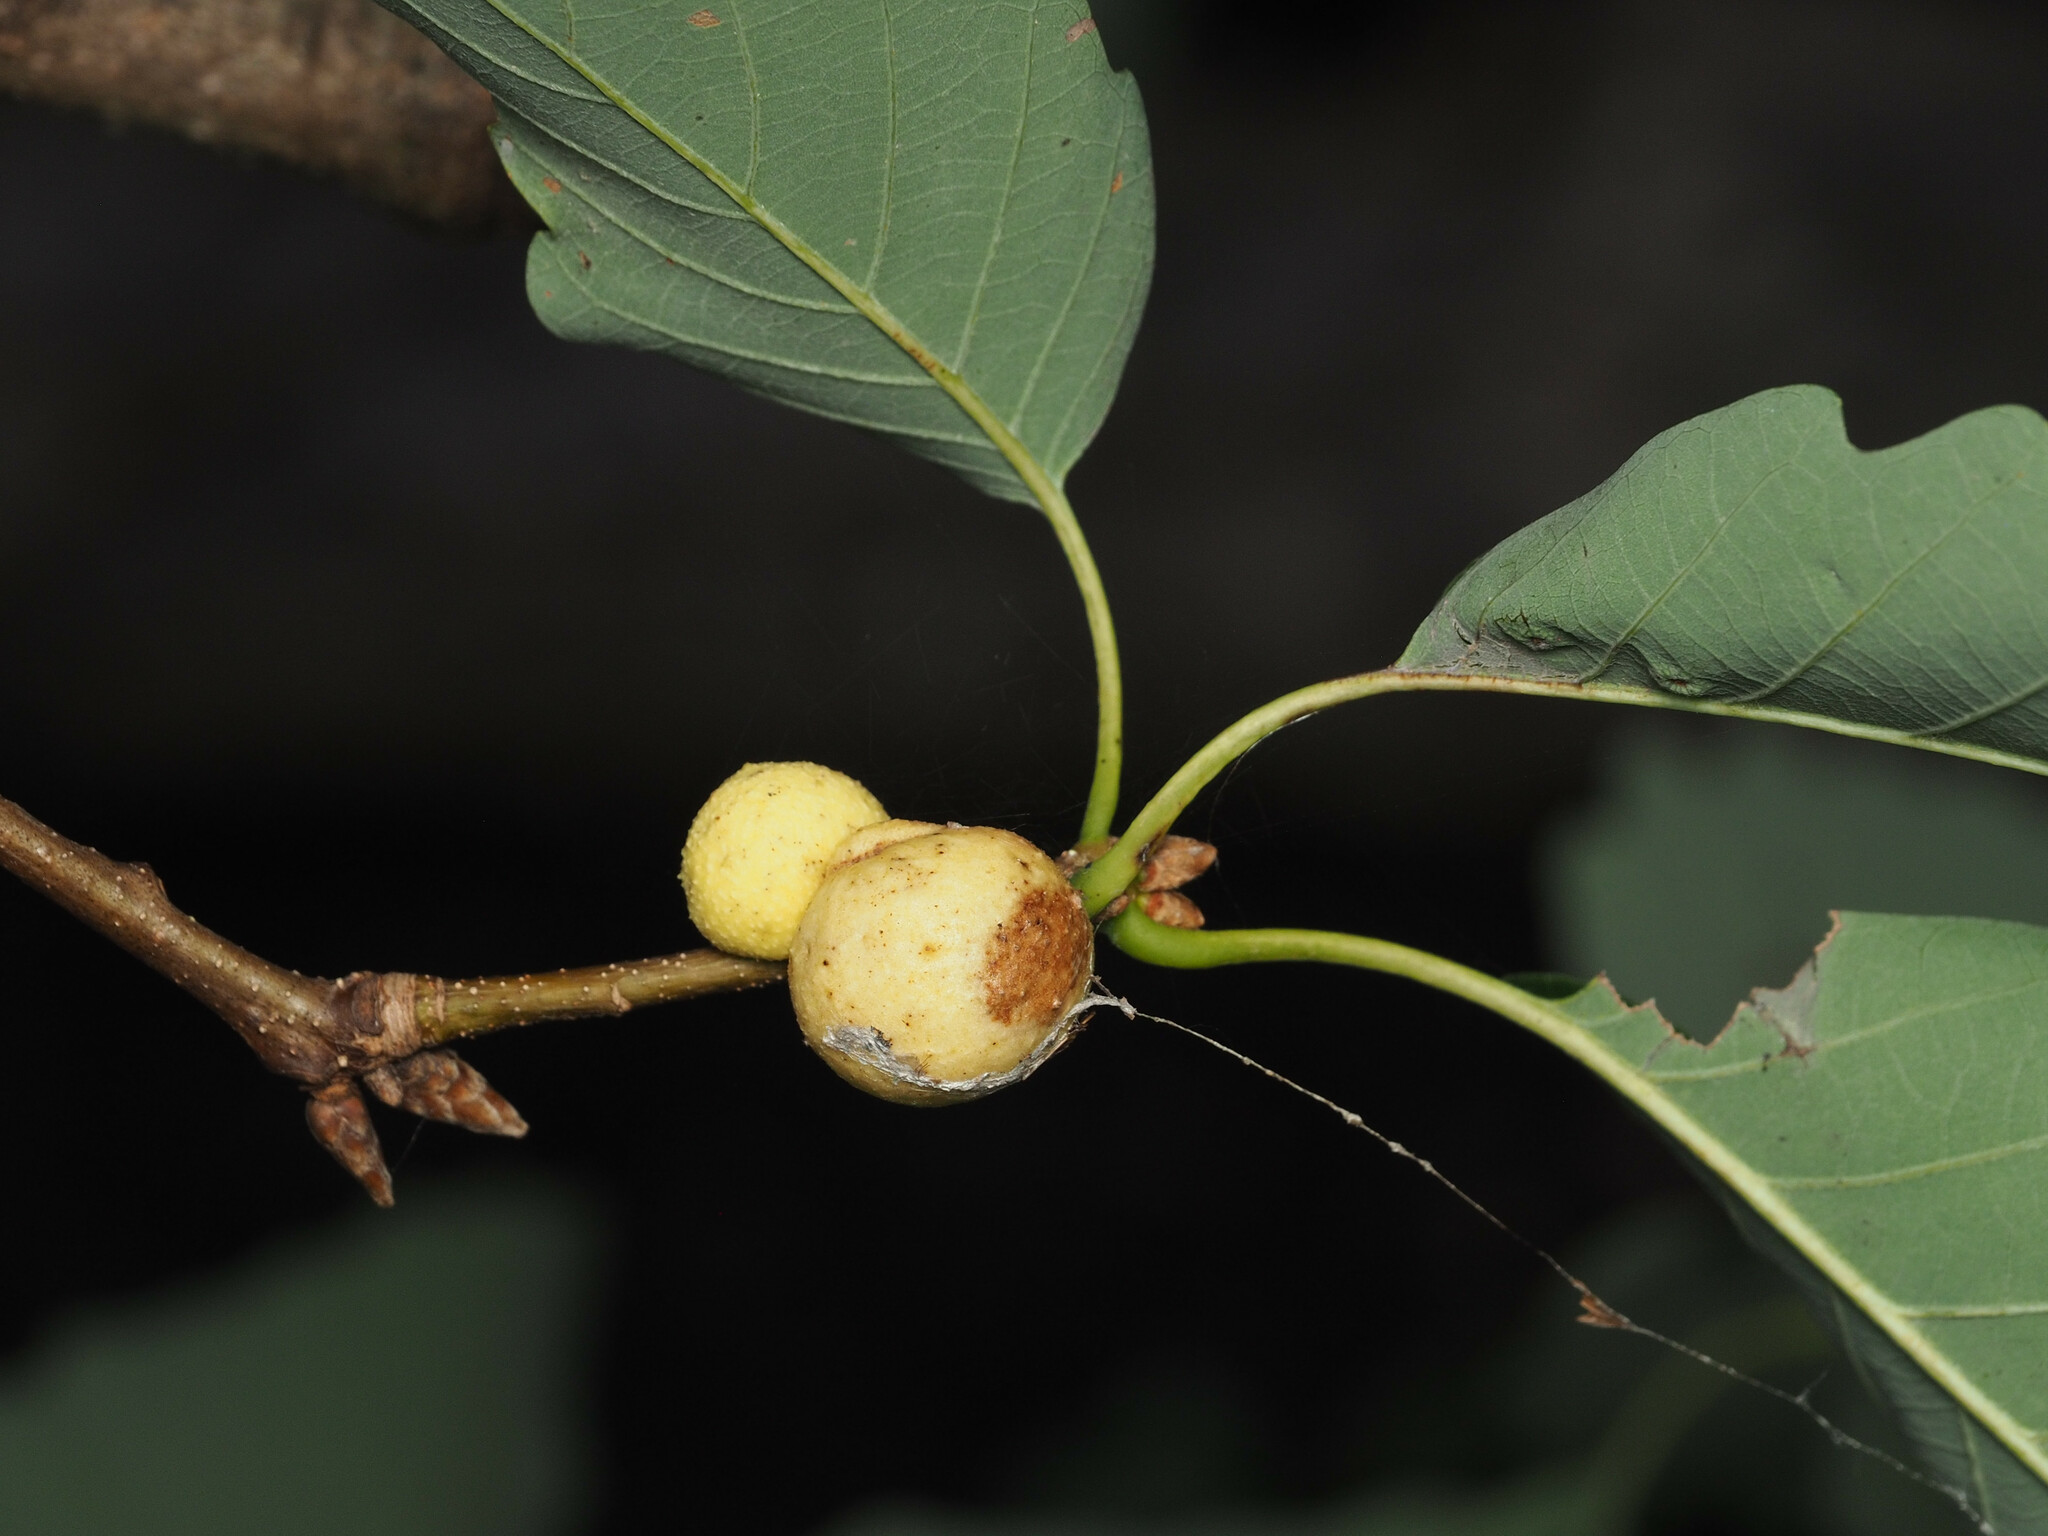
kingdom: Animalia
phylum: Arthropoda
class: Insecta
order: Hymenoptera
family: Cynipidae
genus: Disholcaspis
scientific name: Disholcaspis quercusglobulus
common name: Round bullet gall wasp
